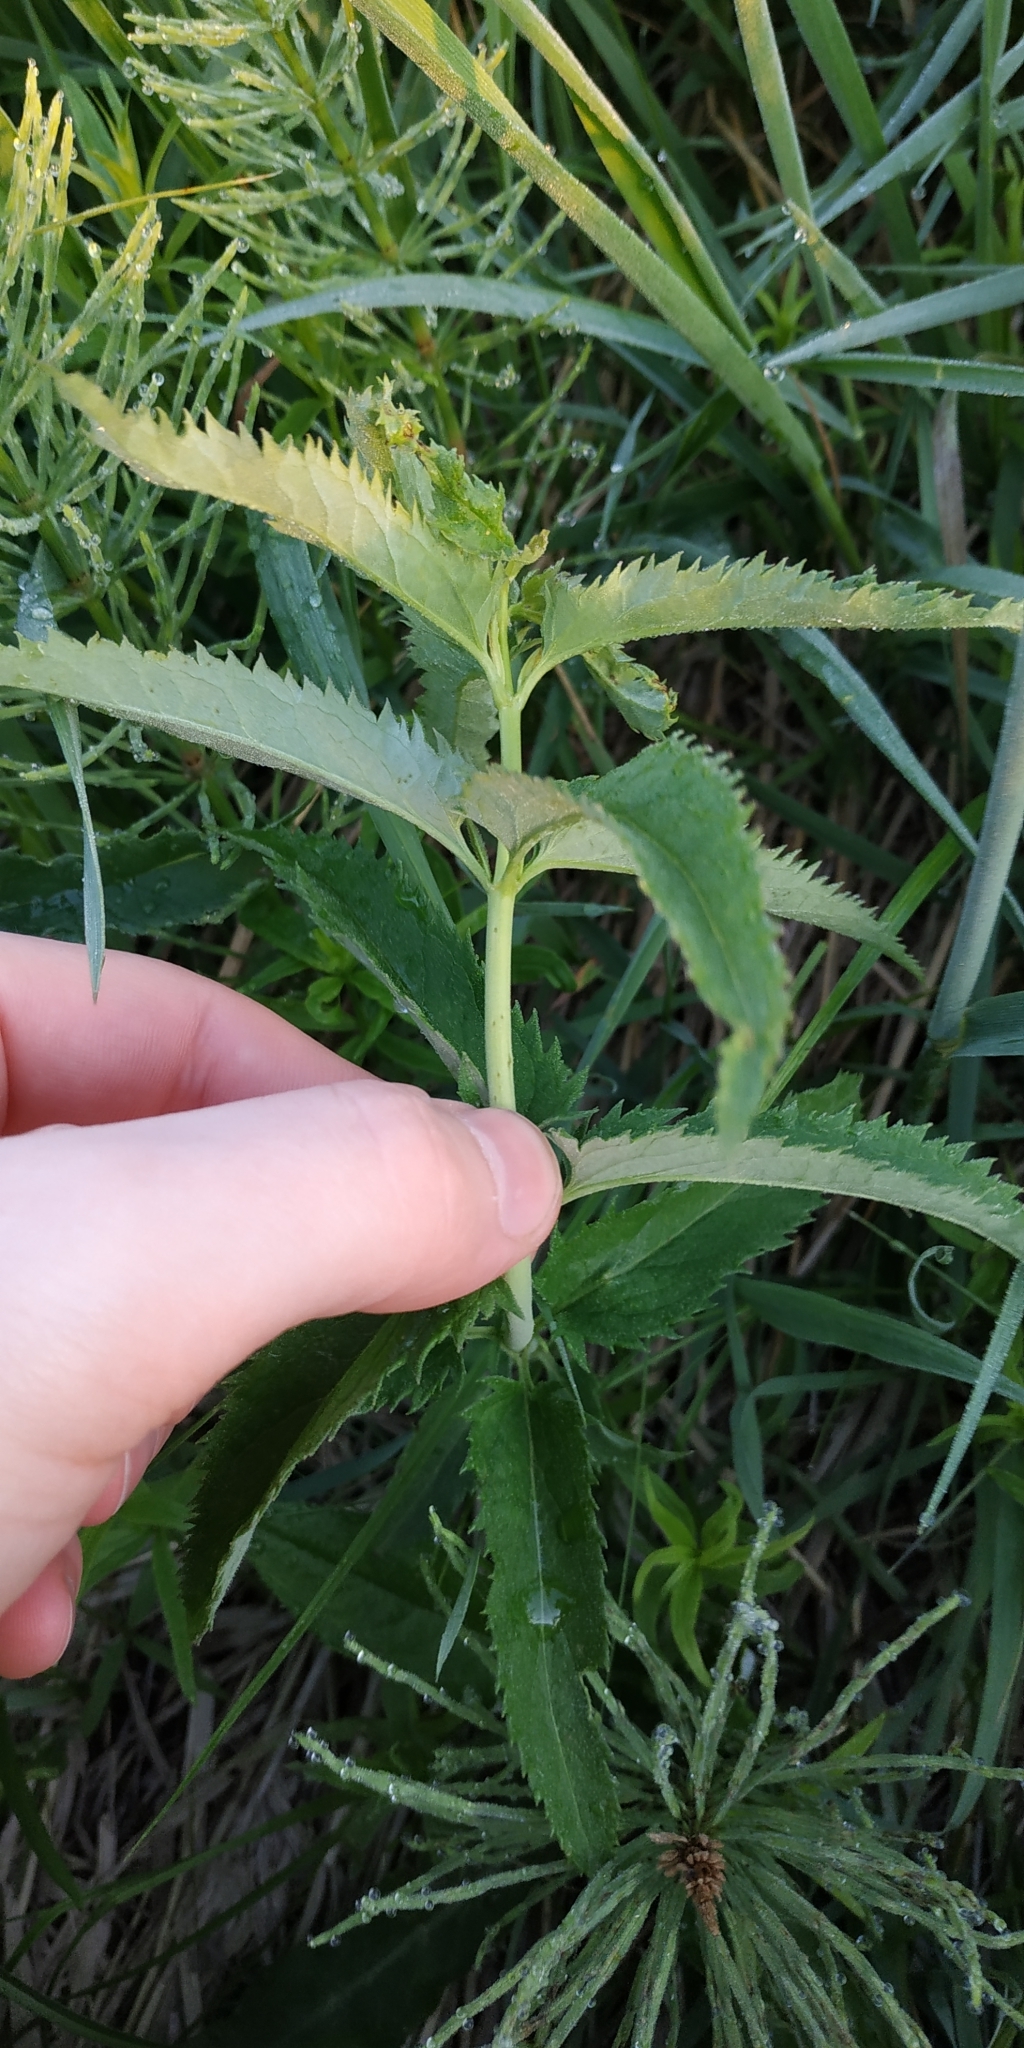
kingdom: Plantae
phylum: Tracheophyta
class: Magnoliopsida
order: Lamiales
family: Plantaginaceae
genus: Veronica
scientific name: Veronica longifolia
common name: Garden speedwell
